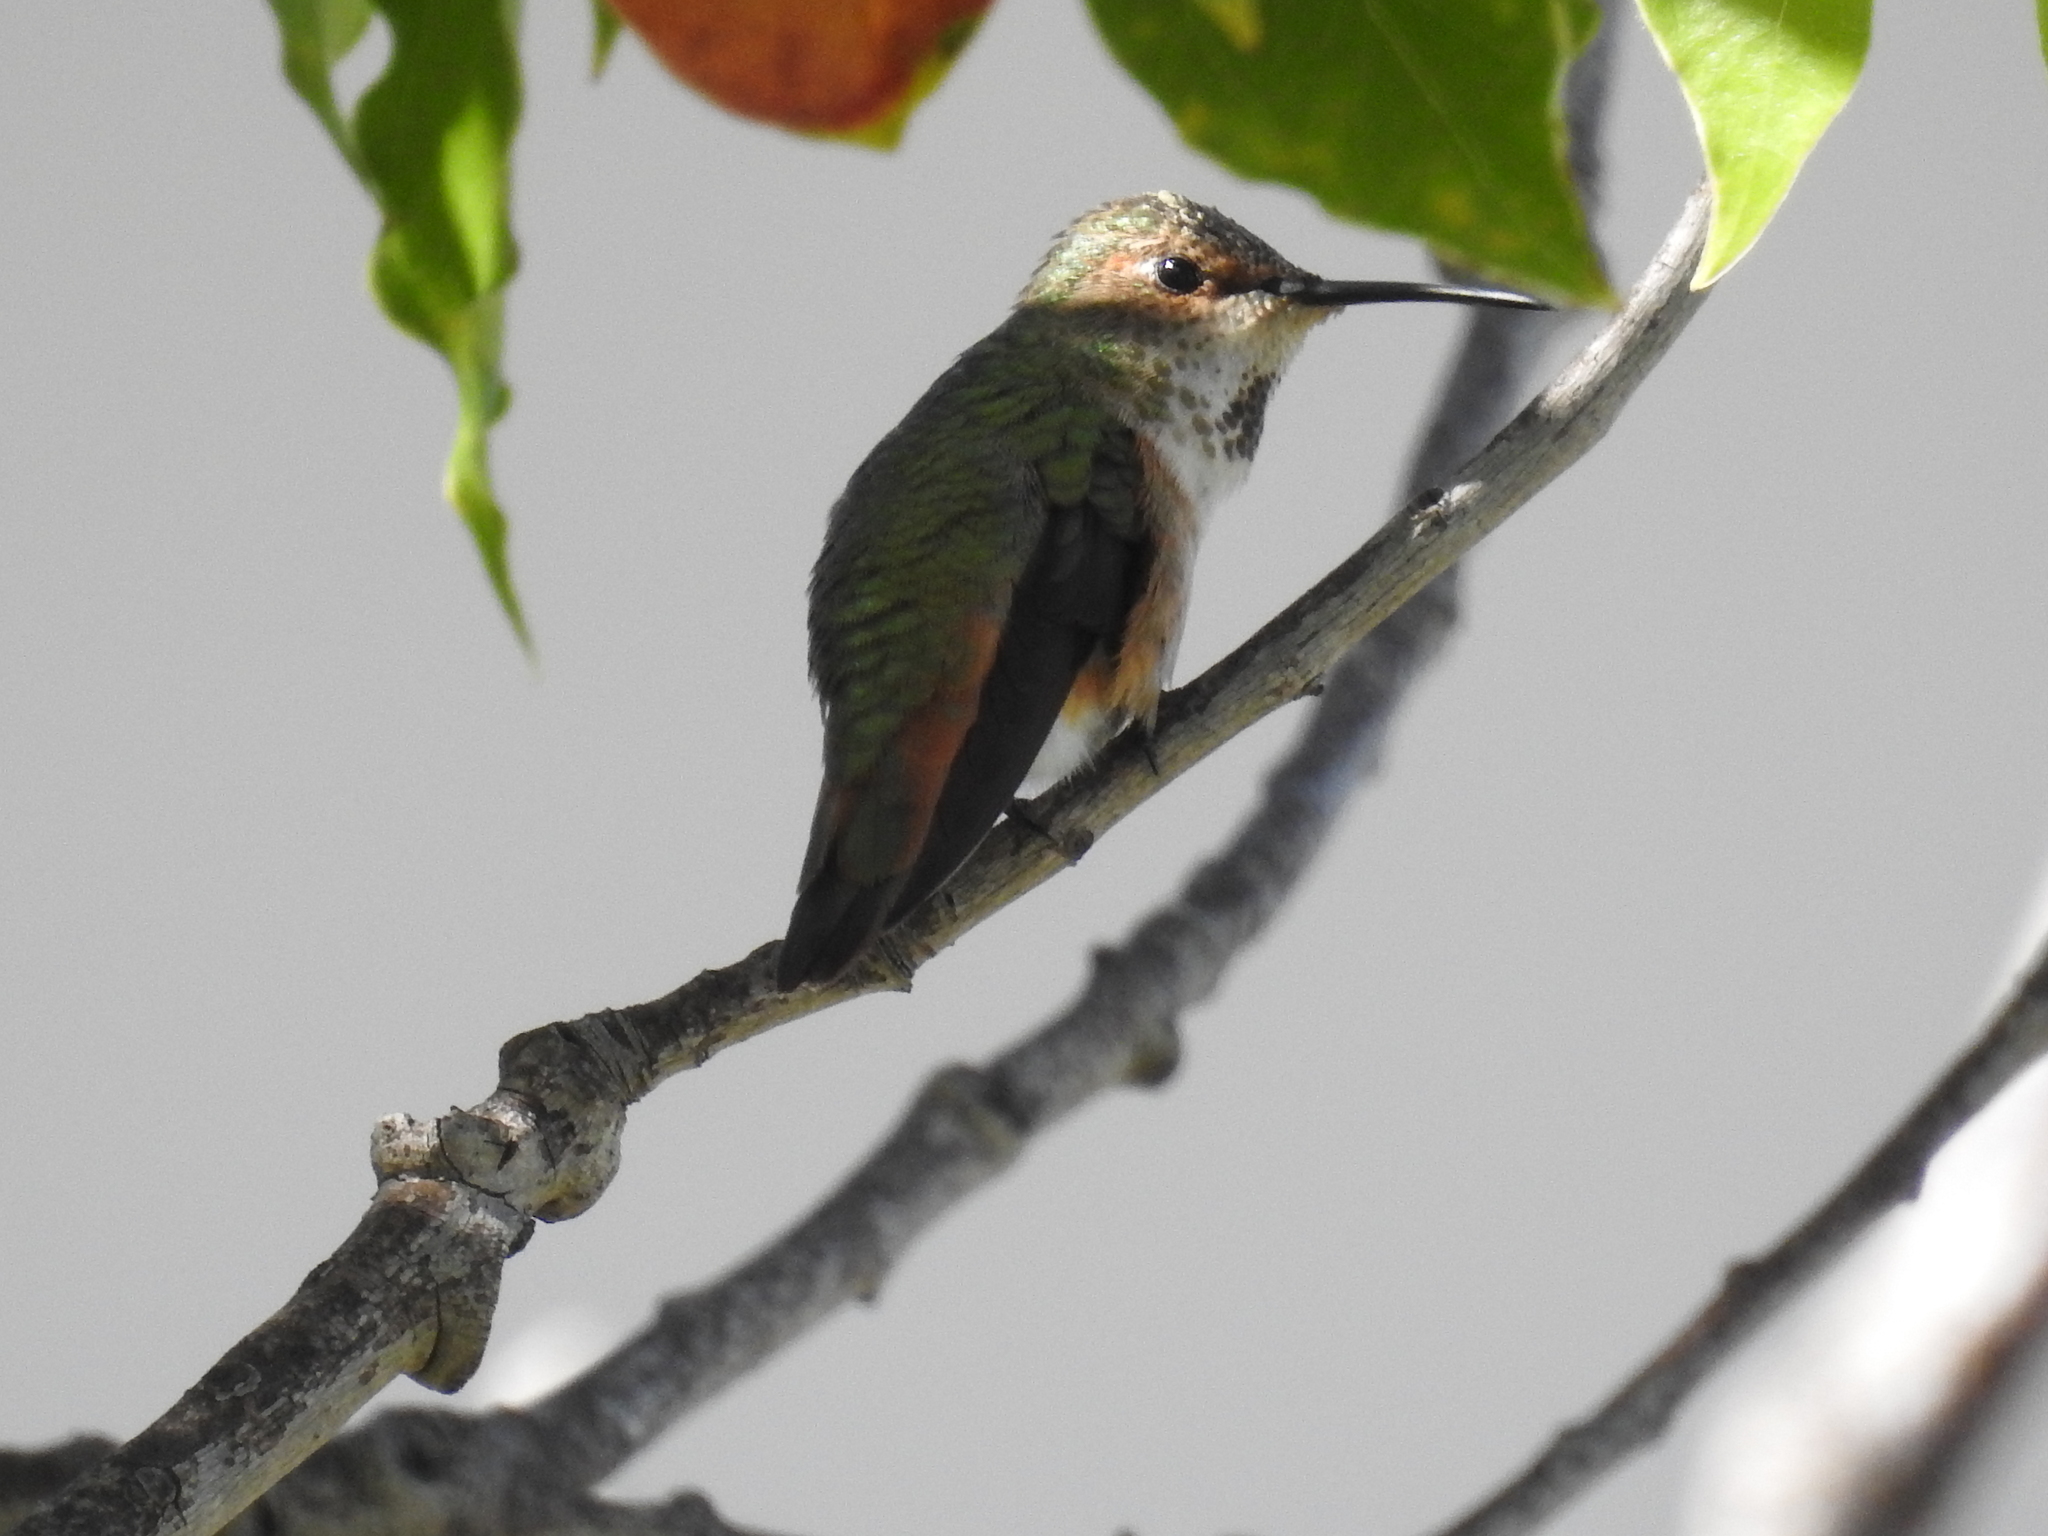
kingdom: Animalia
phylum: Chordata
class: Aves
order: Apodiformes
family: Trochilidae
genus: Selasphorus
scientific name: Selasphorus sasin
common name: Allen's hummingbird
